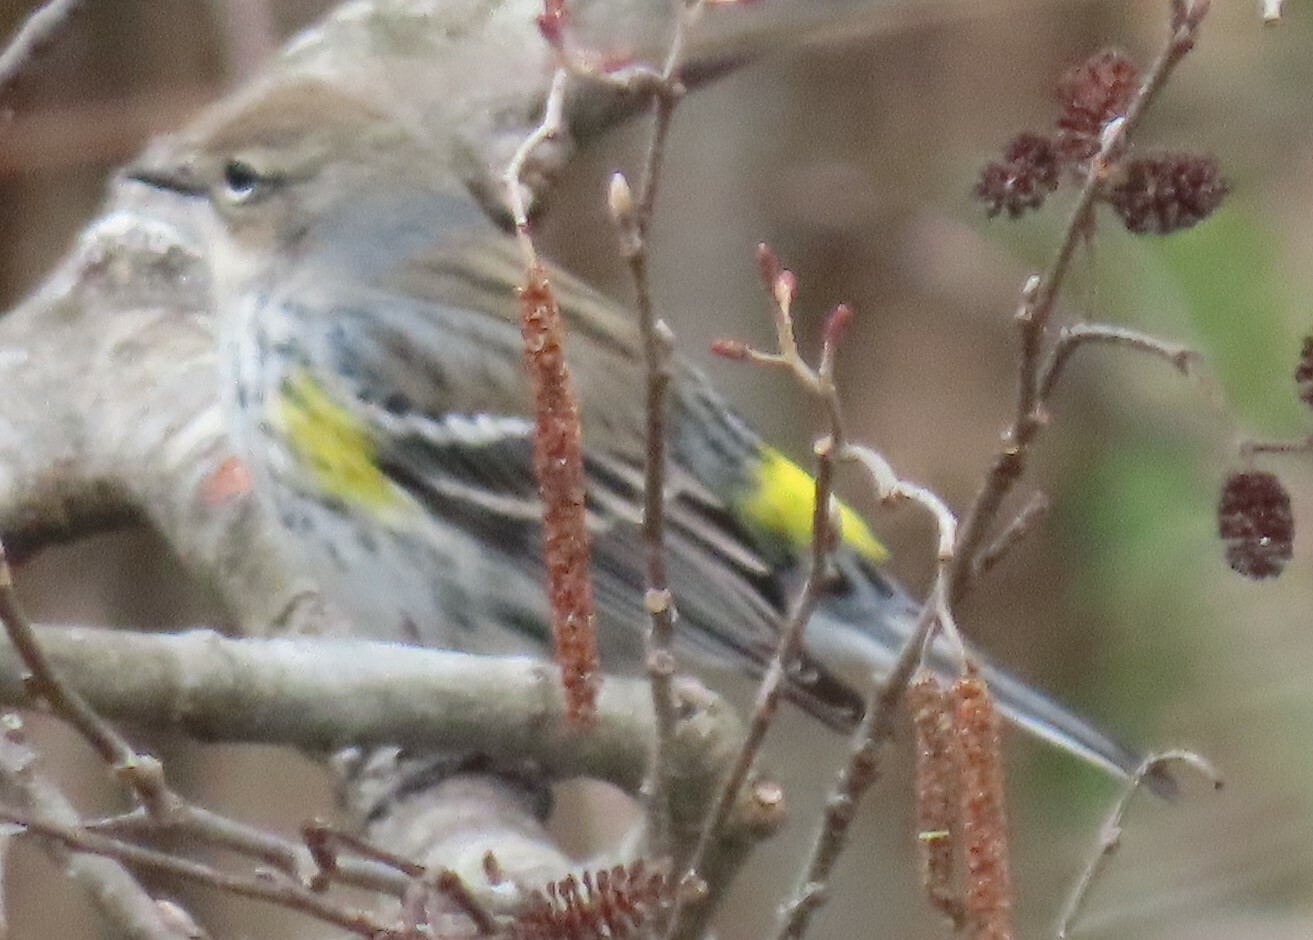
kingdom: Animalia
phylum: Chordata
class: Aves
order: Passeriformes
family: Parulidae
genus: Setophaga
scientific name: Setophaga coronata
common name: Myrtle warbler
